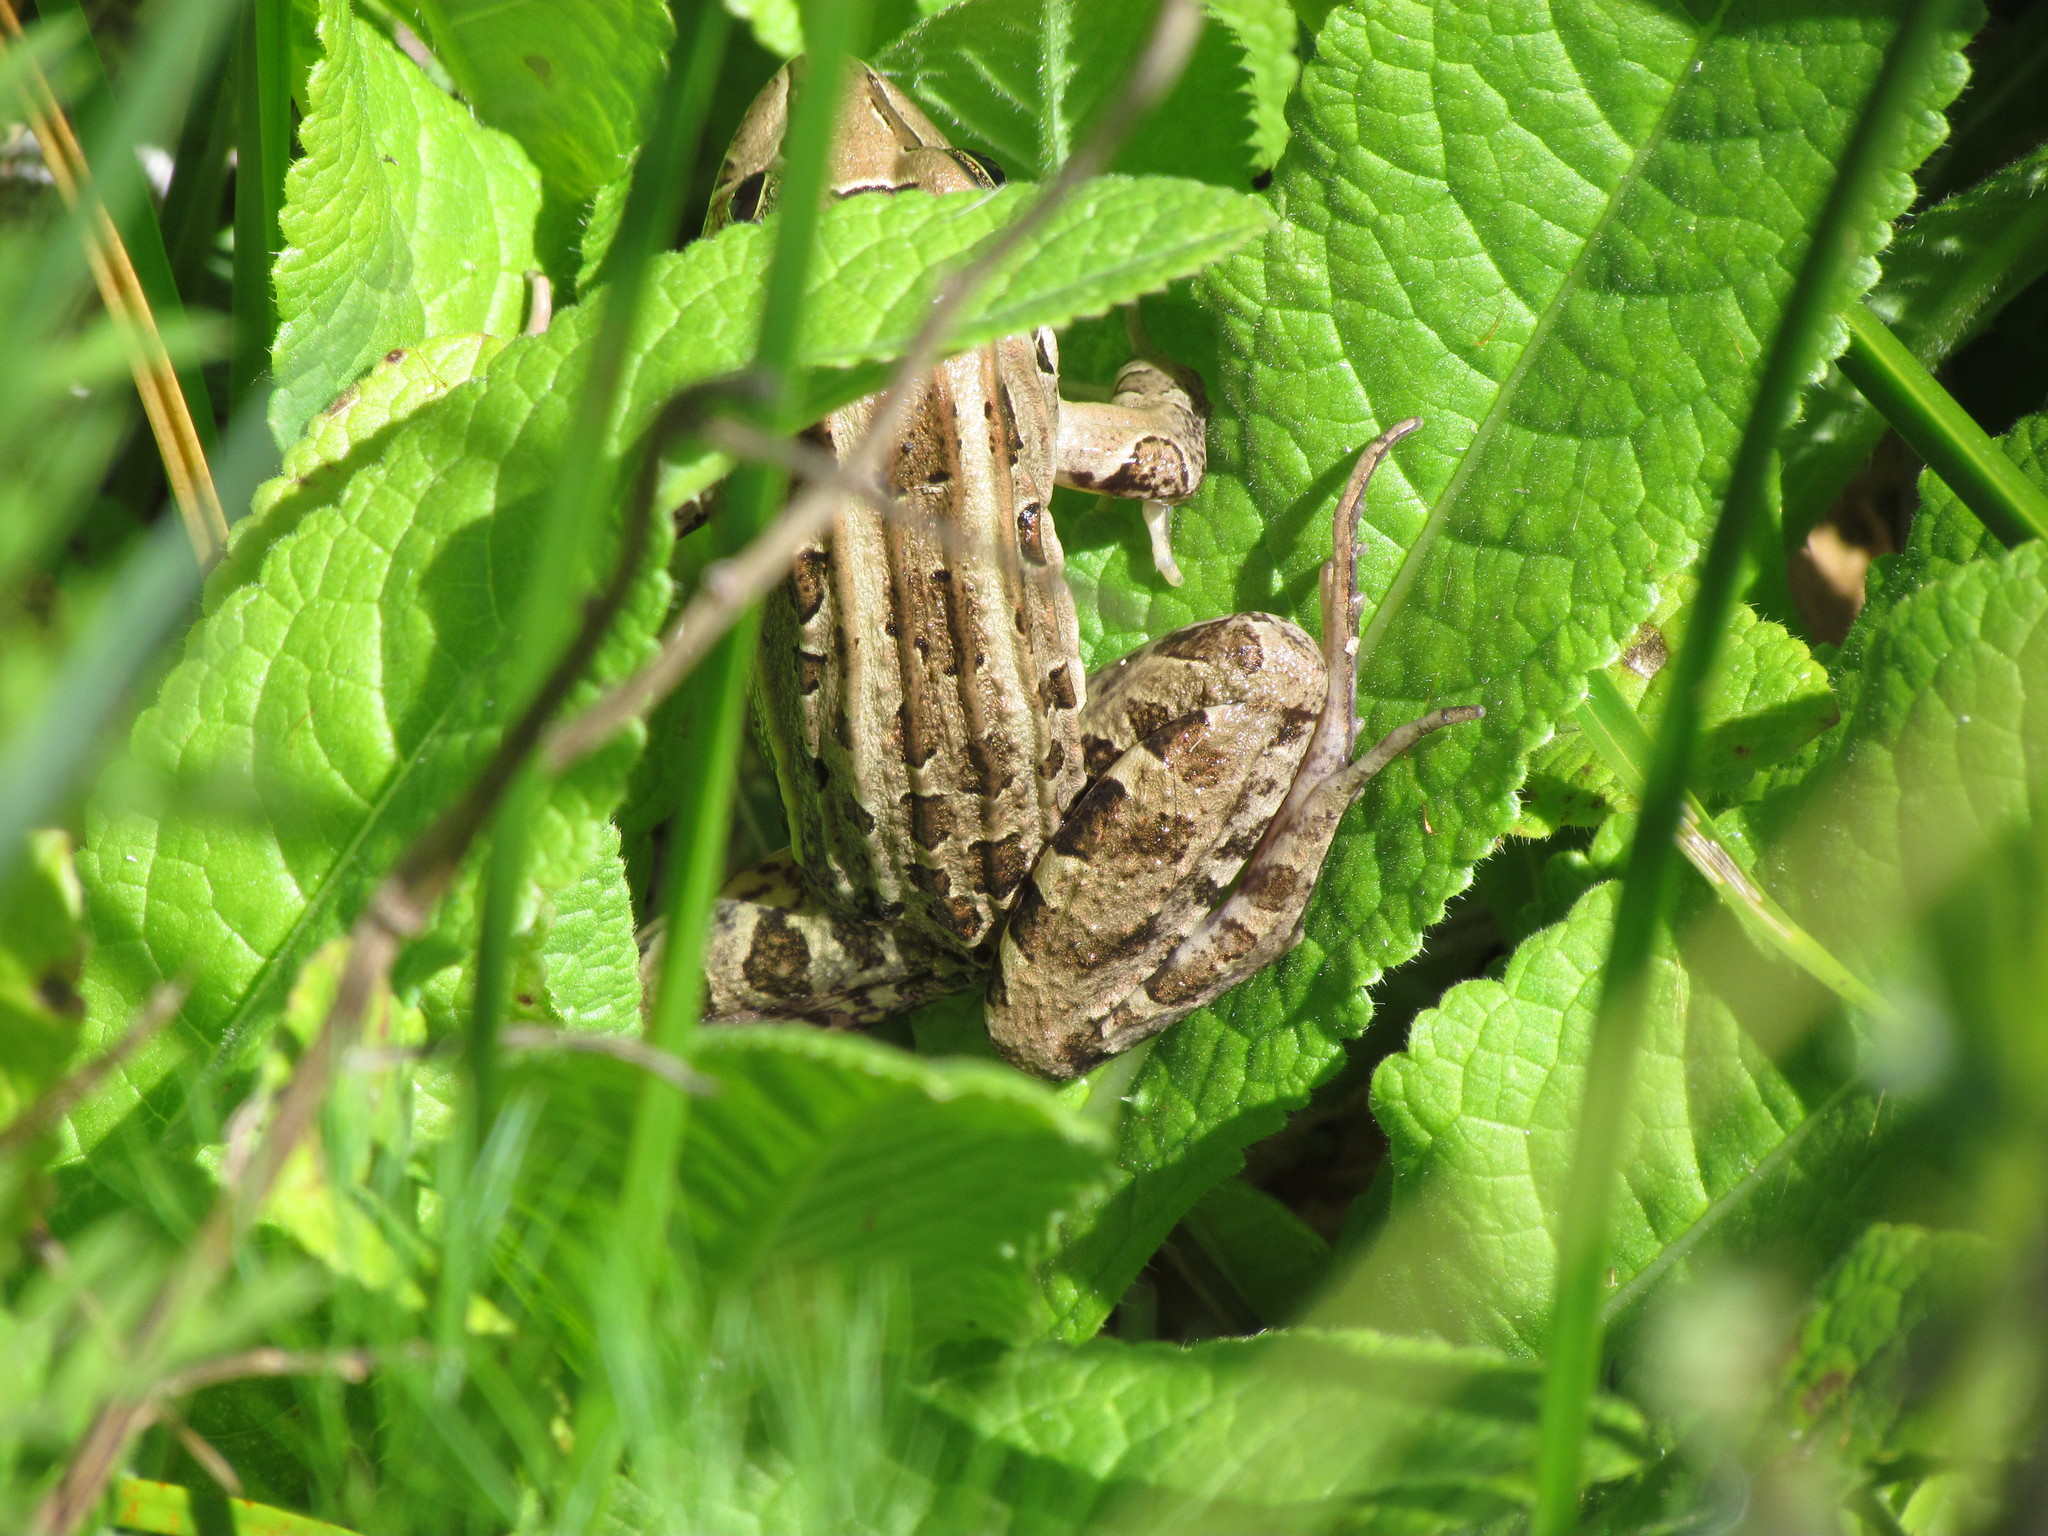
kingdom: Animalia
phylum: Chordata
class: Amphibia
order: Anura
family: Leptodactylidae
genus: Leptodactylus
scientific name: Leptodactylus luctator
